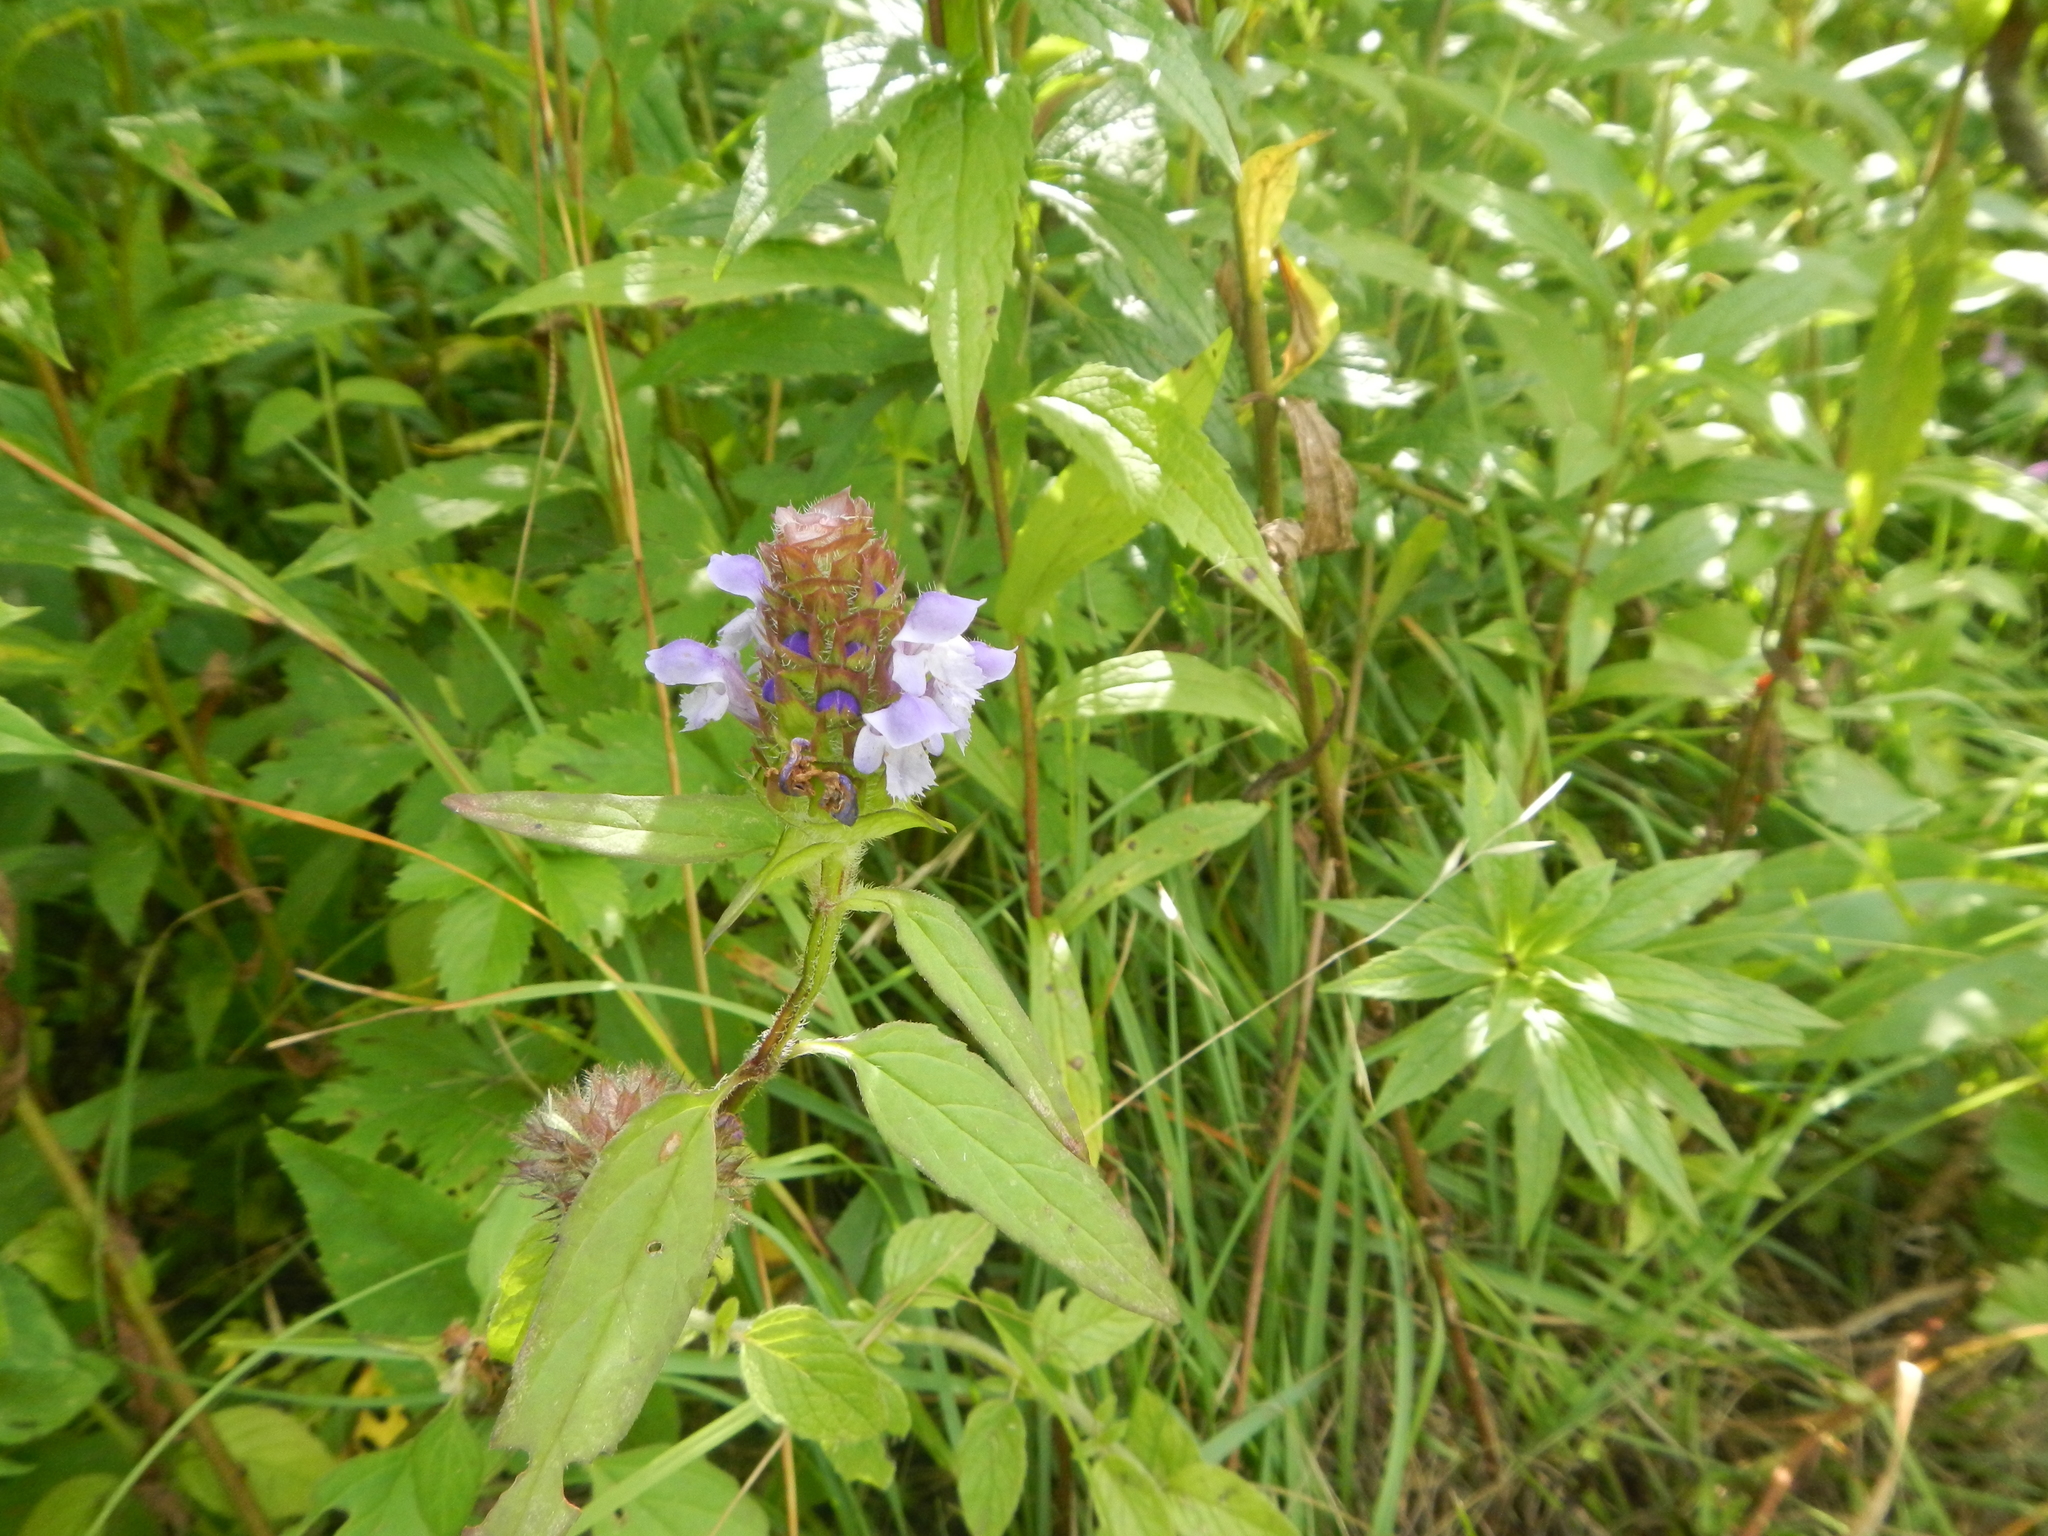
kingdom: Plantae
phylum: Tracheophyta
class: Magnoliopsida
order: Lamiales
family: Lamiaceae
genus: Prunella
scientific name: Prunella vulgaris
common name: Heal-all
